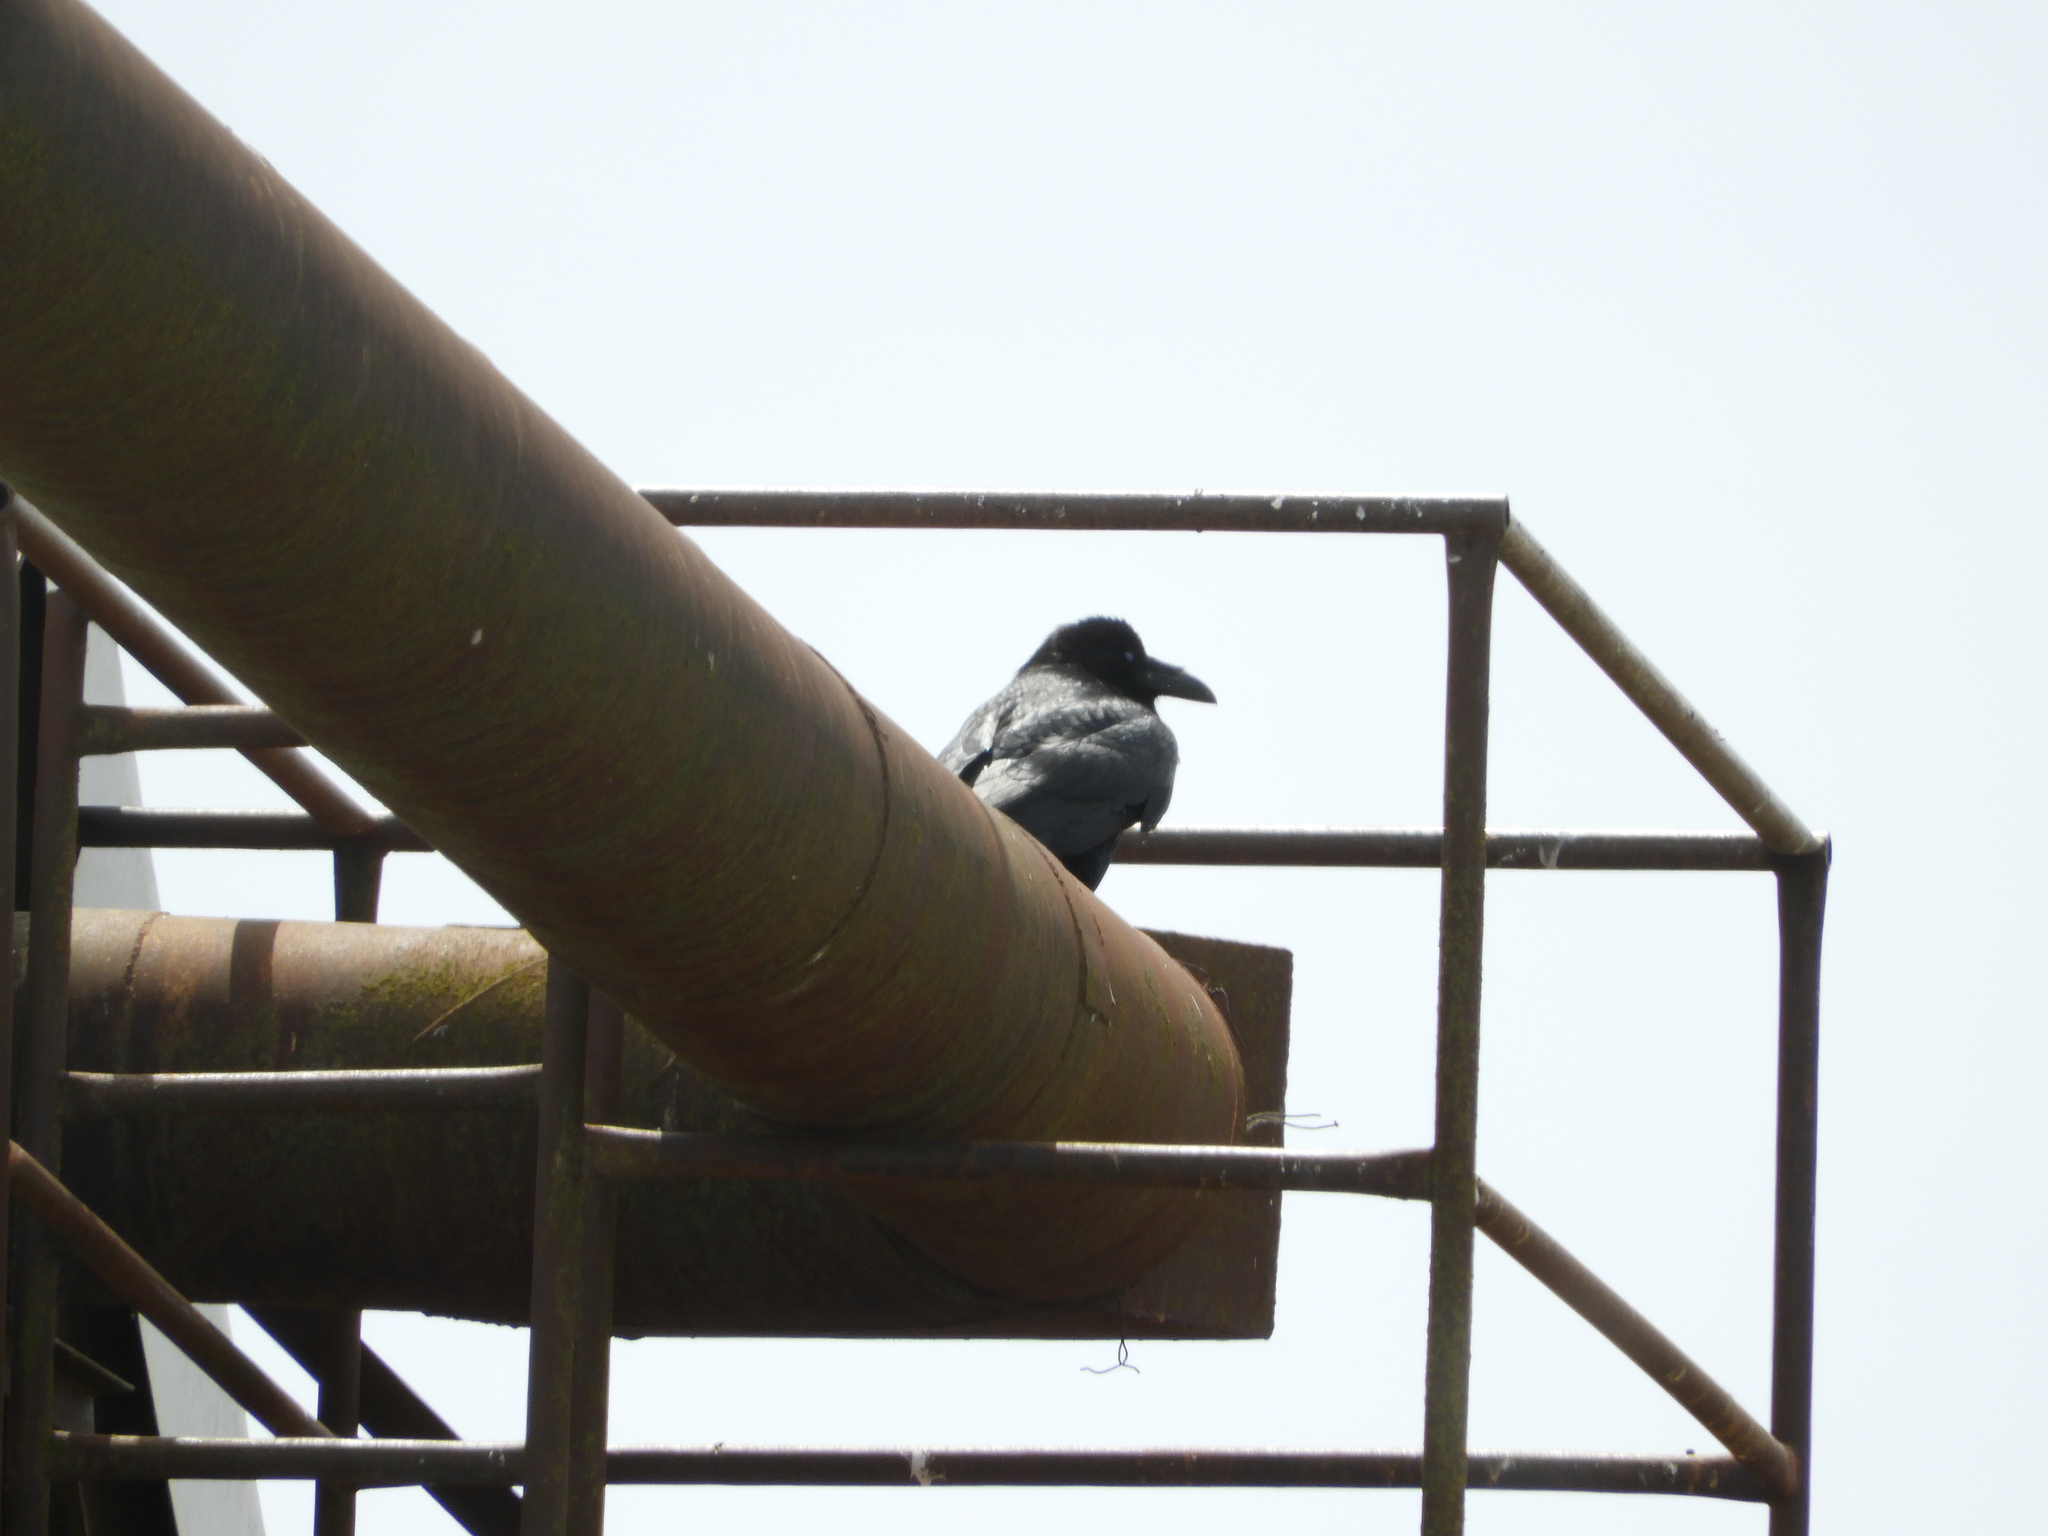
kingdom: Animalia
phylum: Chordata
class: Aves
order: Passeriformes
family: Corvidae
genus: Corvus
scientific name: Corvus corax
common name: Common raven
